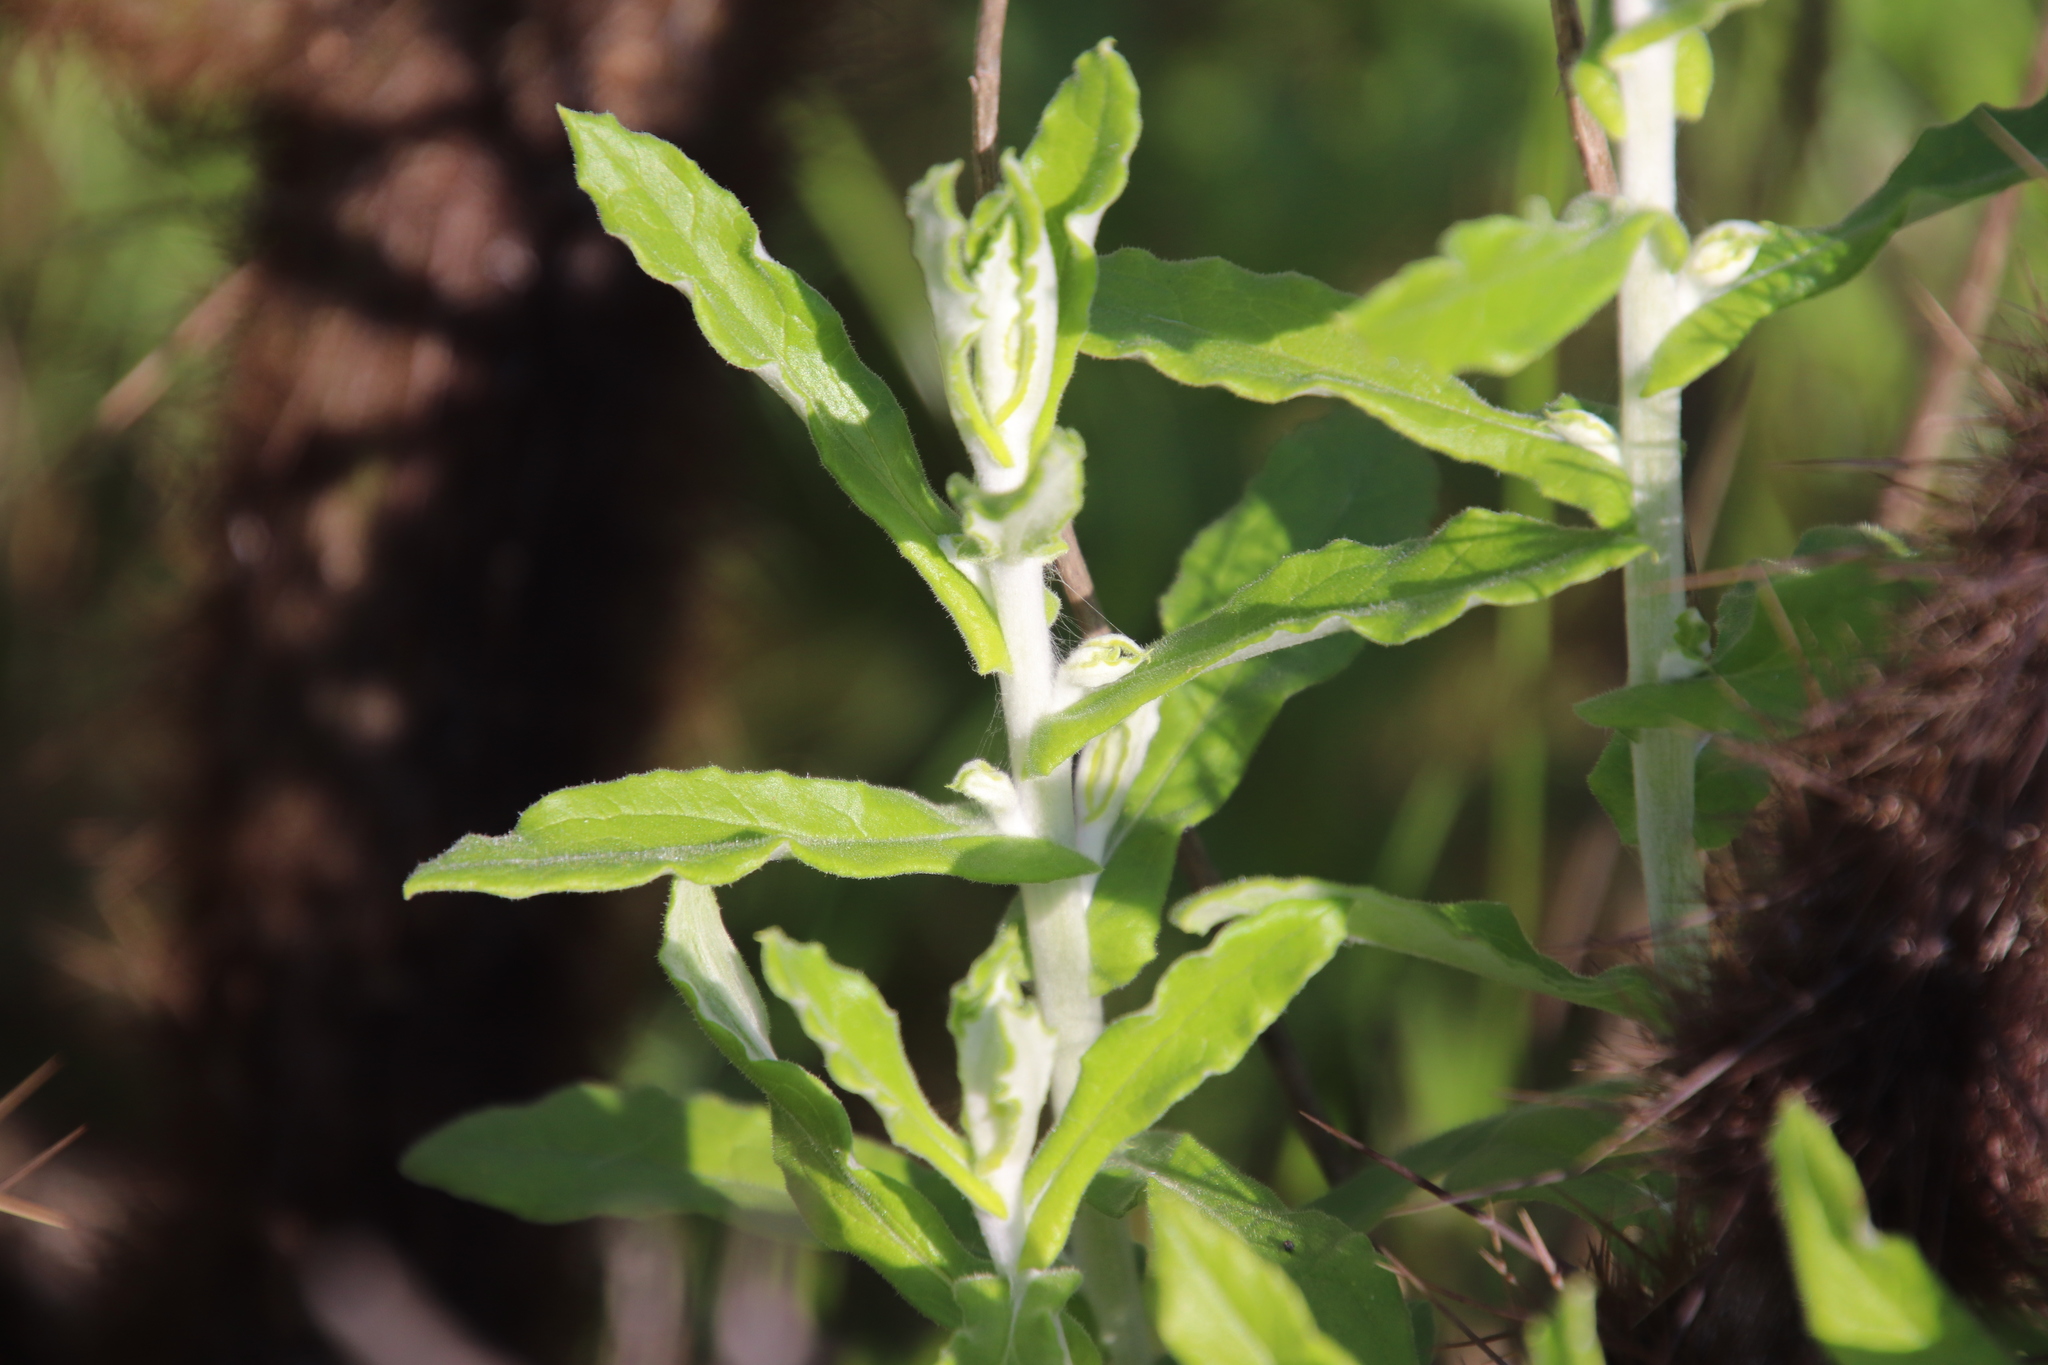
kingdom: Plantae
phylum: Tracheophyta
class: Magnoliopsida
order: Asterales
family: Asteraceae
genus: Pseudognaphalium
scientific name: Pseudognaphalium biolettii
